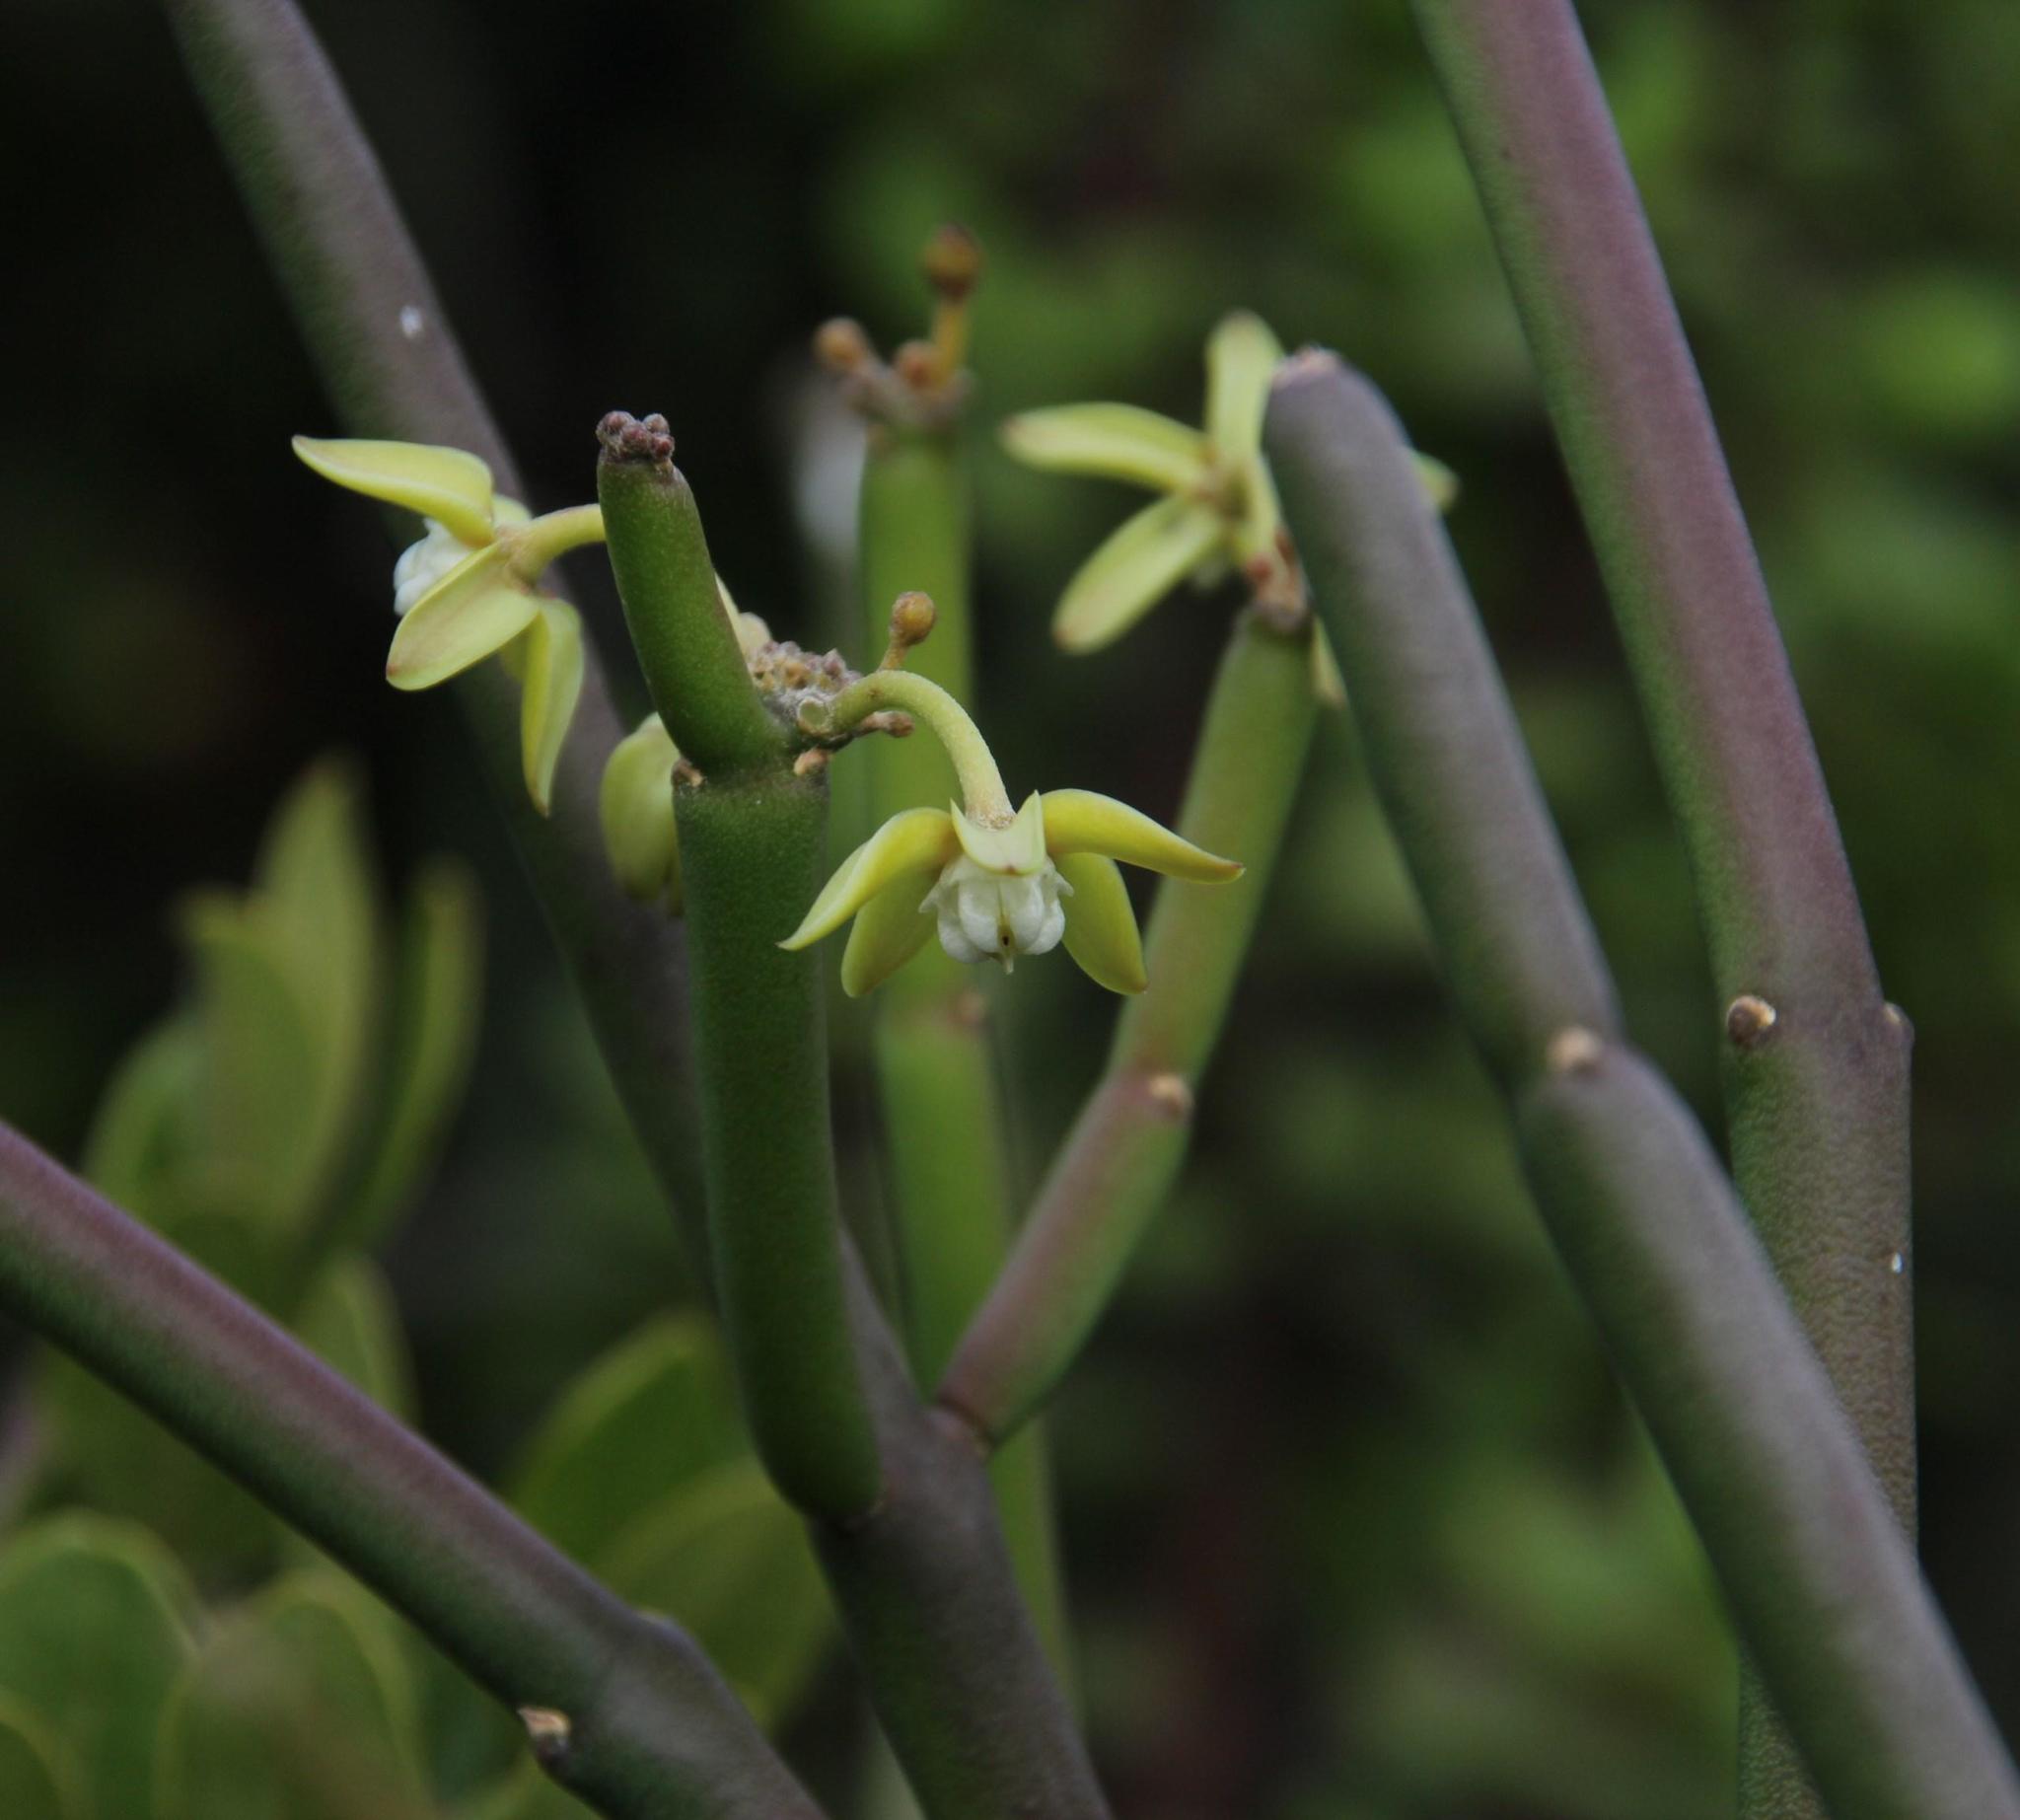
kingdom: Plantae
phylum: Tracheophyta
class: Magnoliopsida
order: Gentianales
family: Apocynaceae
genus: Cynanchum
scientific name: Cynanchum viminale
